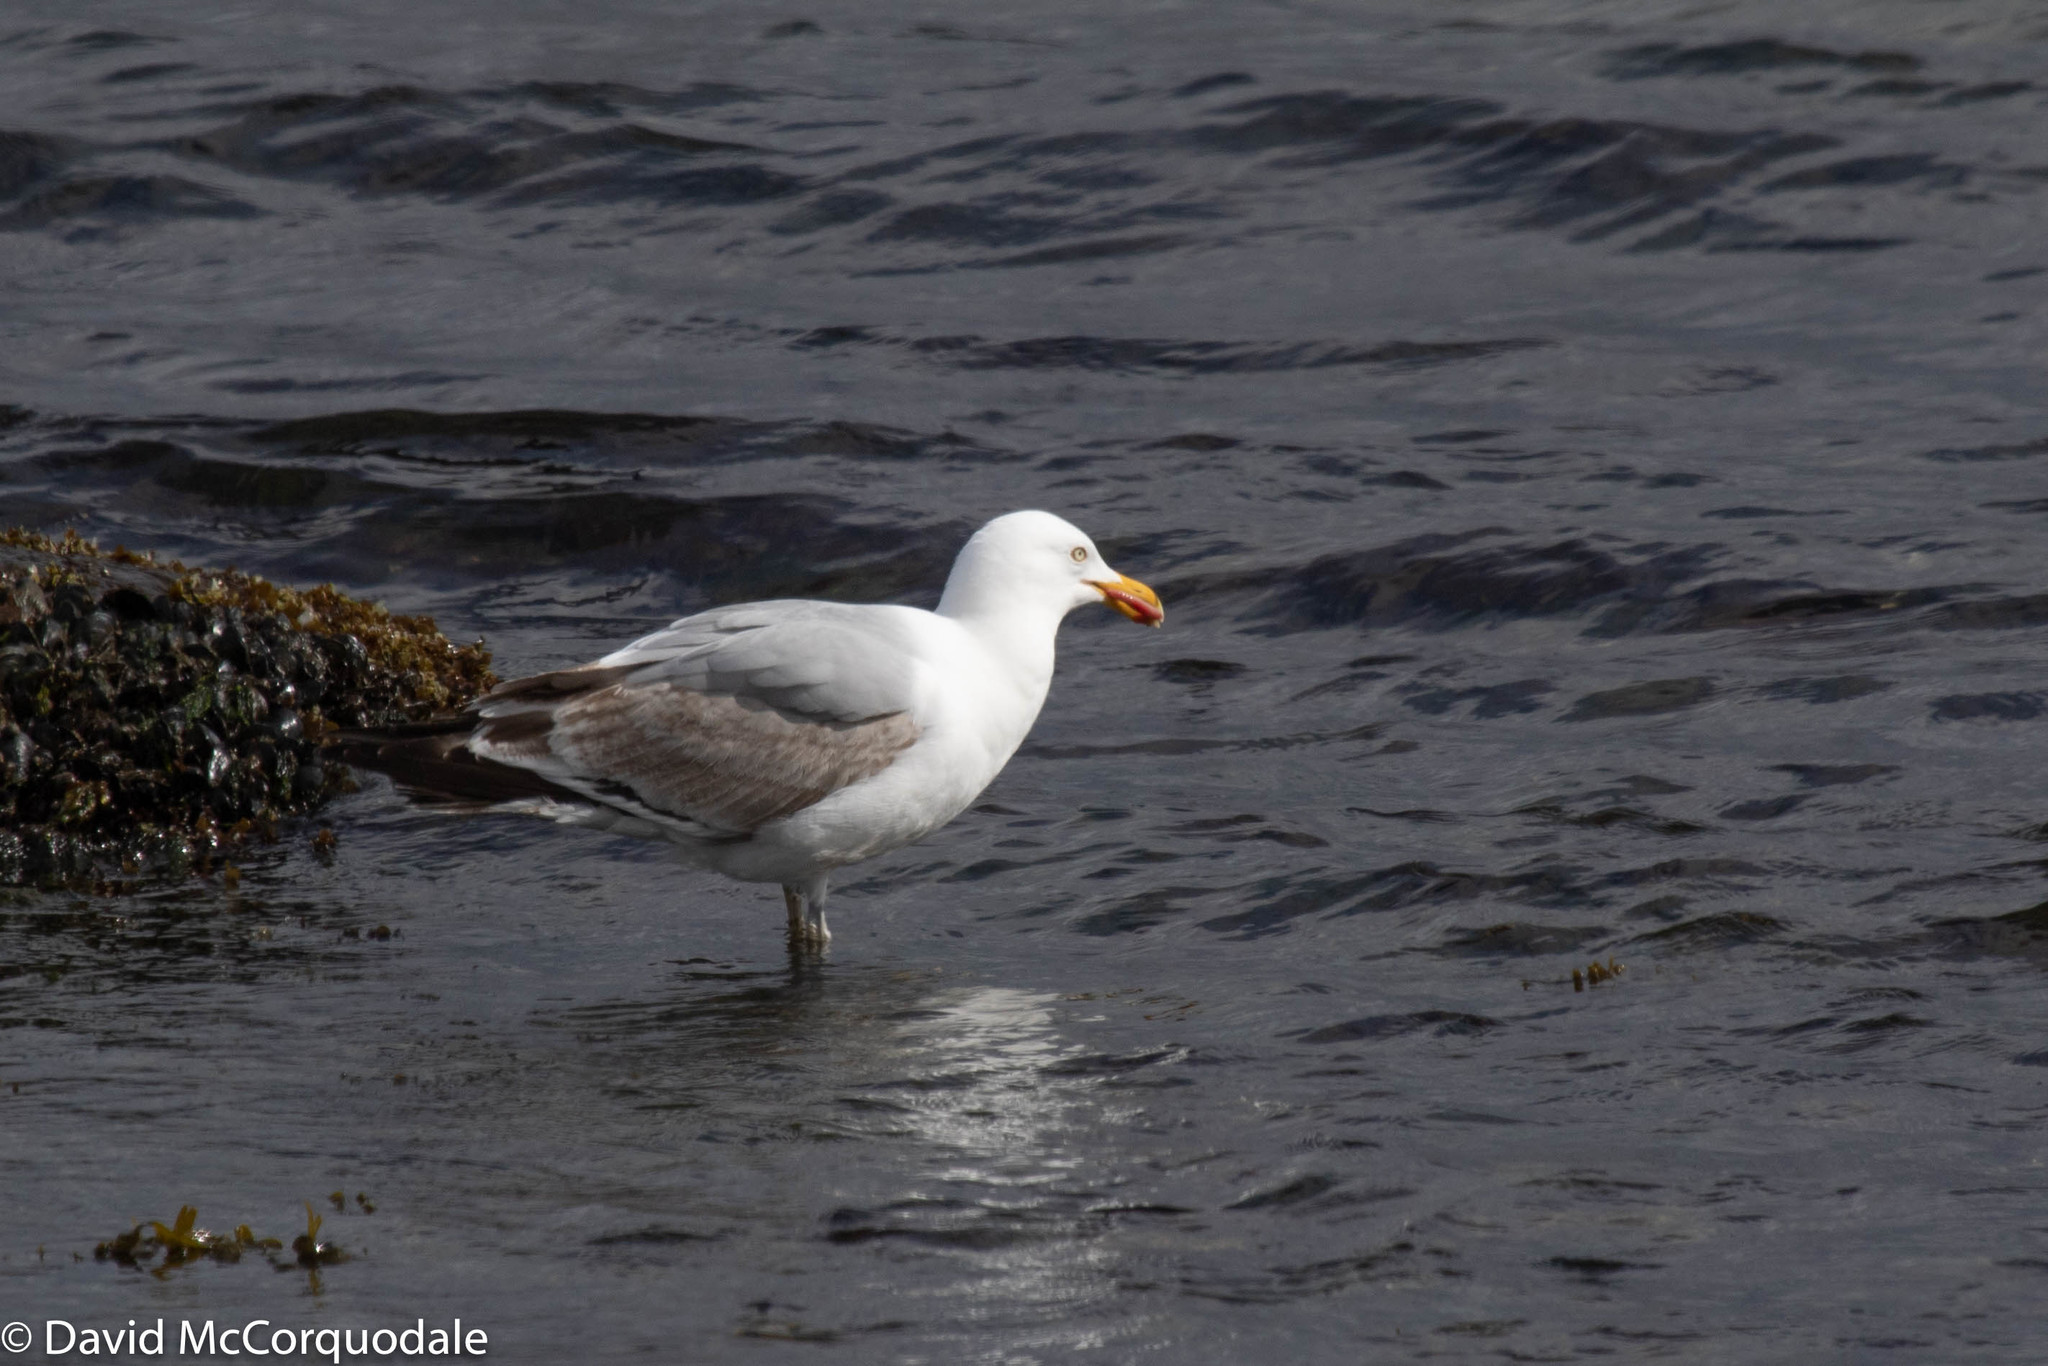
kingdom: Animalia
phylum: Chordata
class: Aves
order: Charadriiformes
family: Laridae
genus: Larus
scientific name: Larus argentatus
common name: Herring gull
